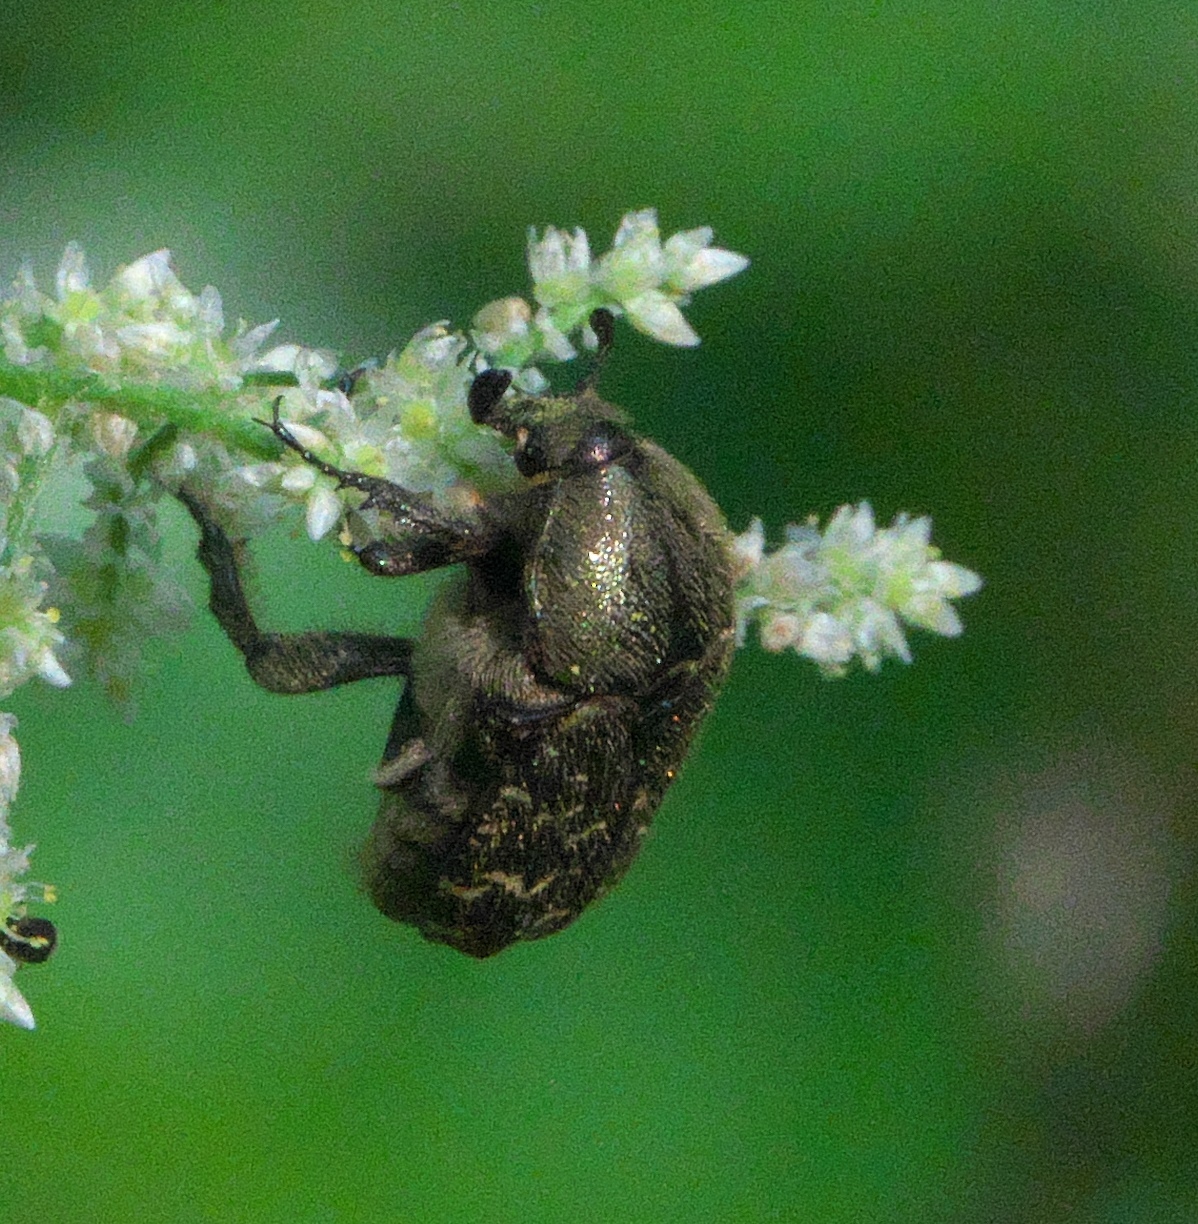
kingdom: Animalia
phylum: Arthropoda
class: Insecta
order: Coleoptera
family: Scarabaeidae
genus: Euphoria
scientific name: Euphoria sepulcralis
